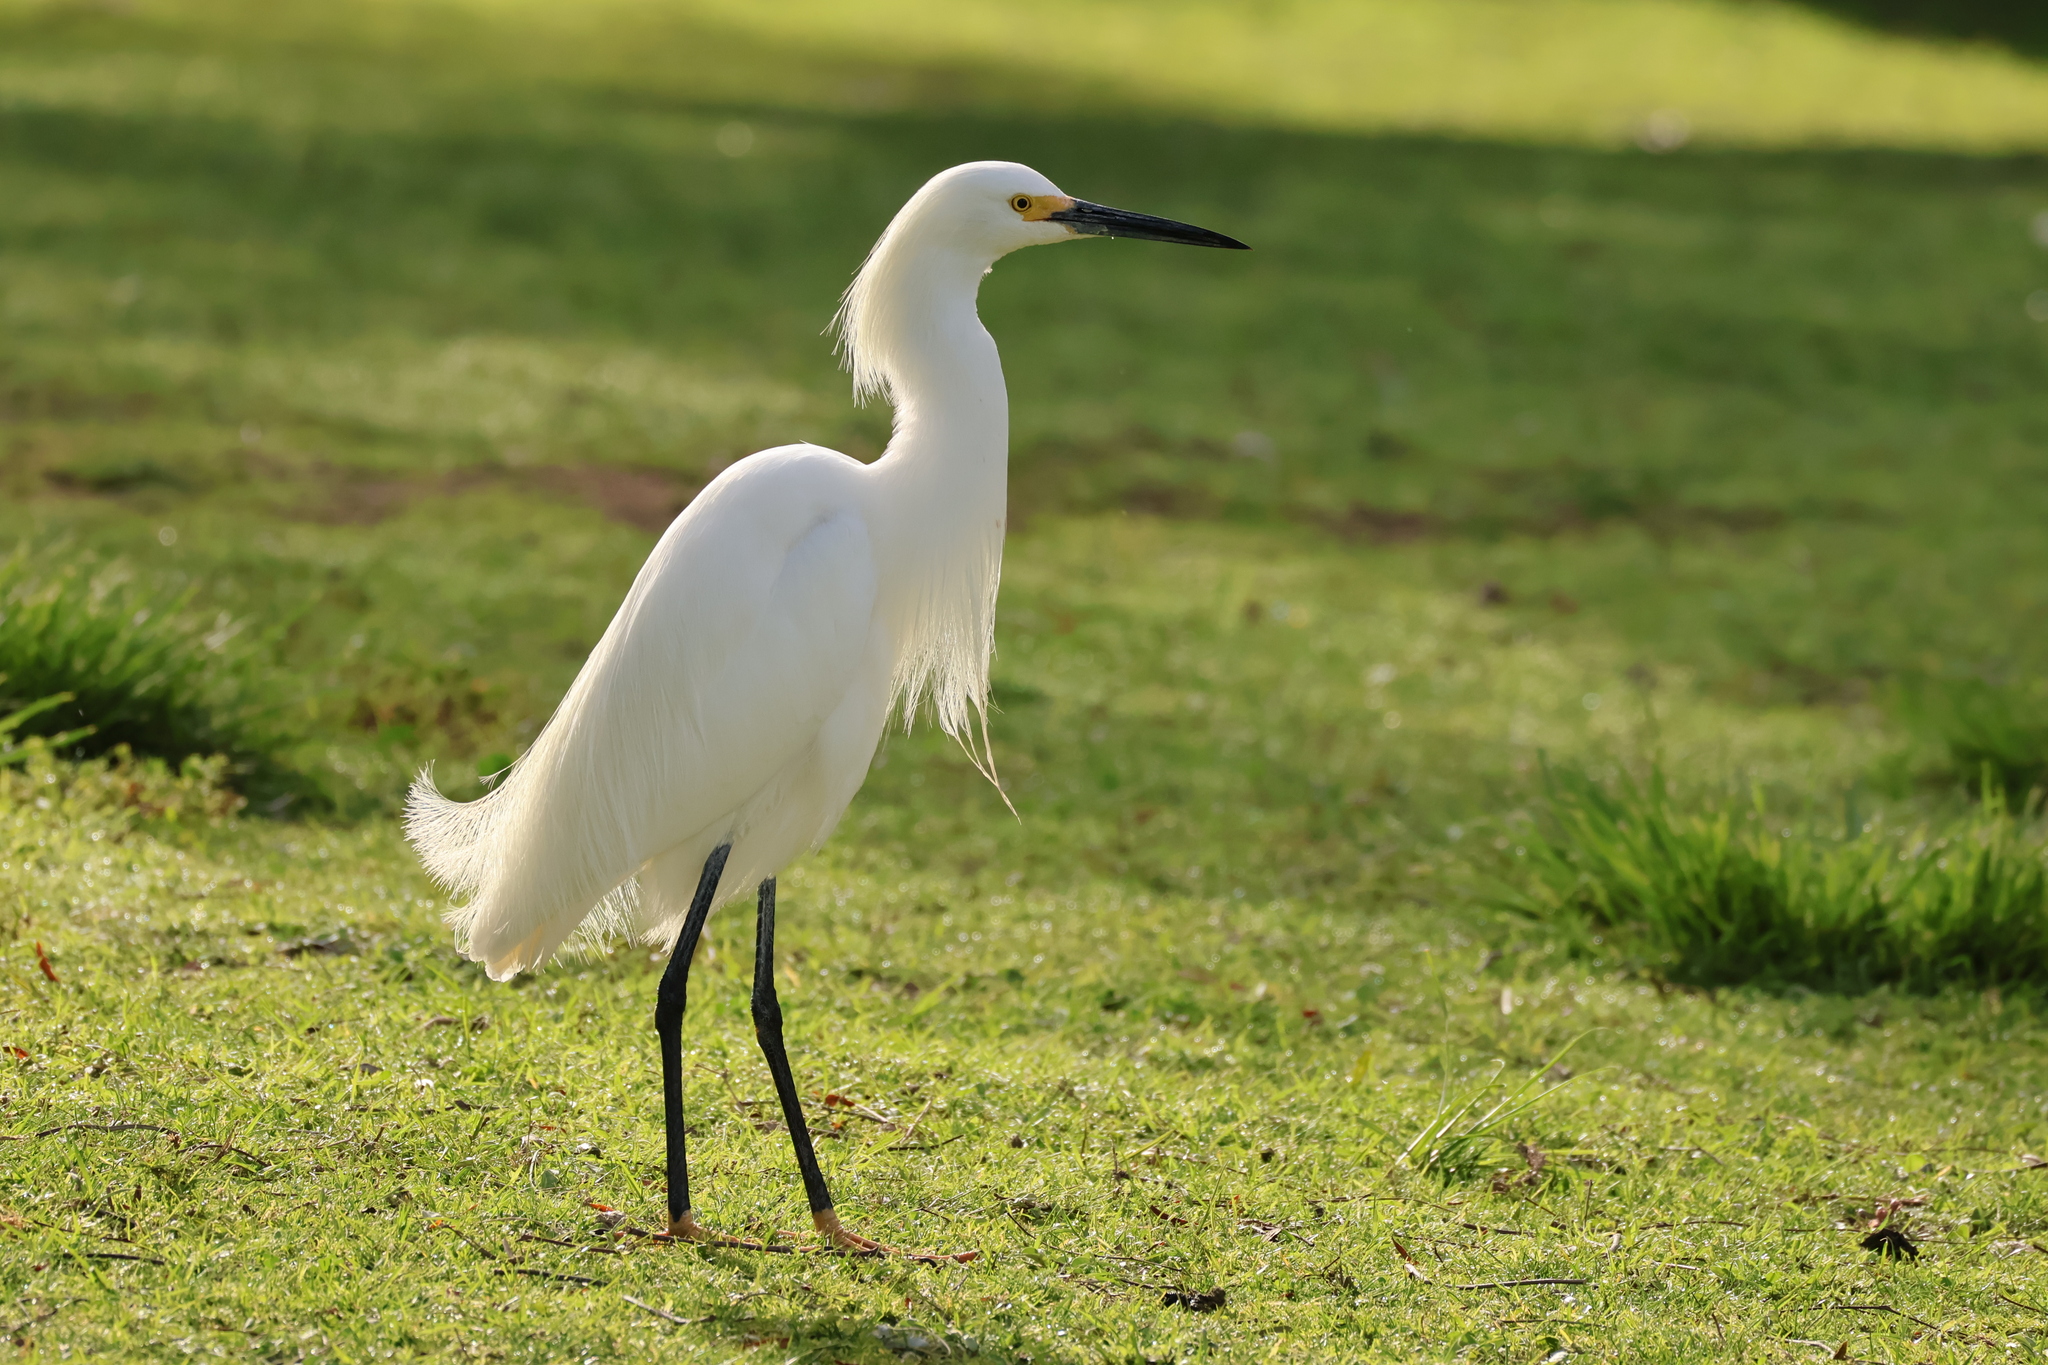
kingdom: Animalia
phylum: Chordata
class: Aves
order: Pelecaniformes
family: Ardeidae
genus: Egretta
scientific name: Egretta thula
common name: Snowy egret
